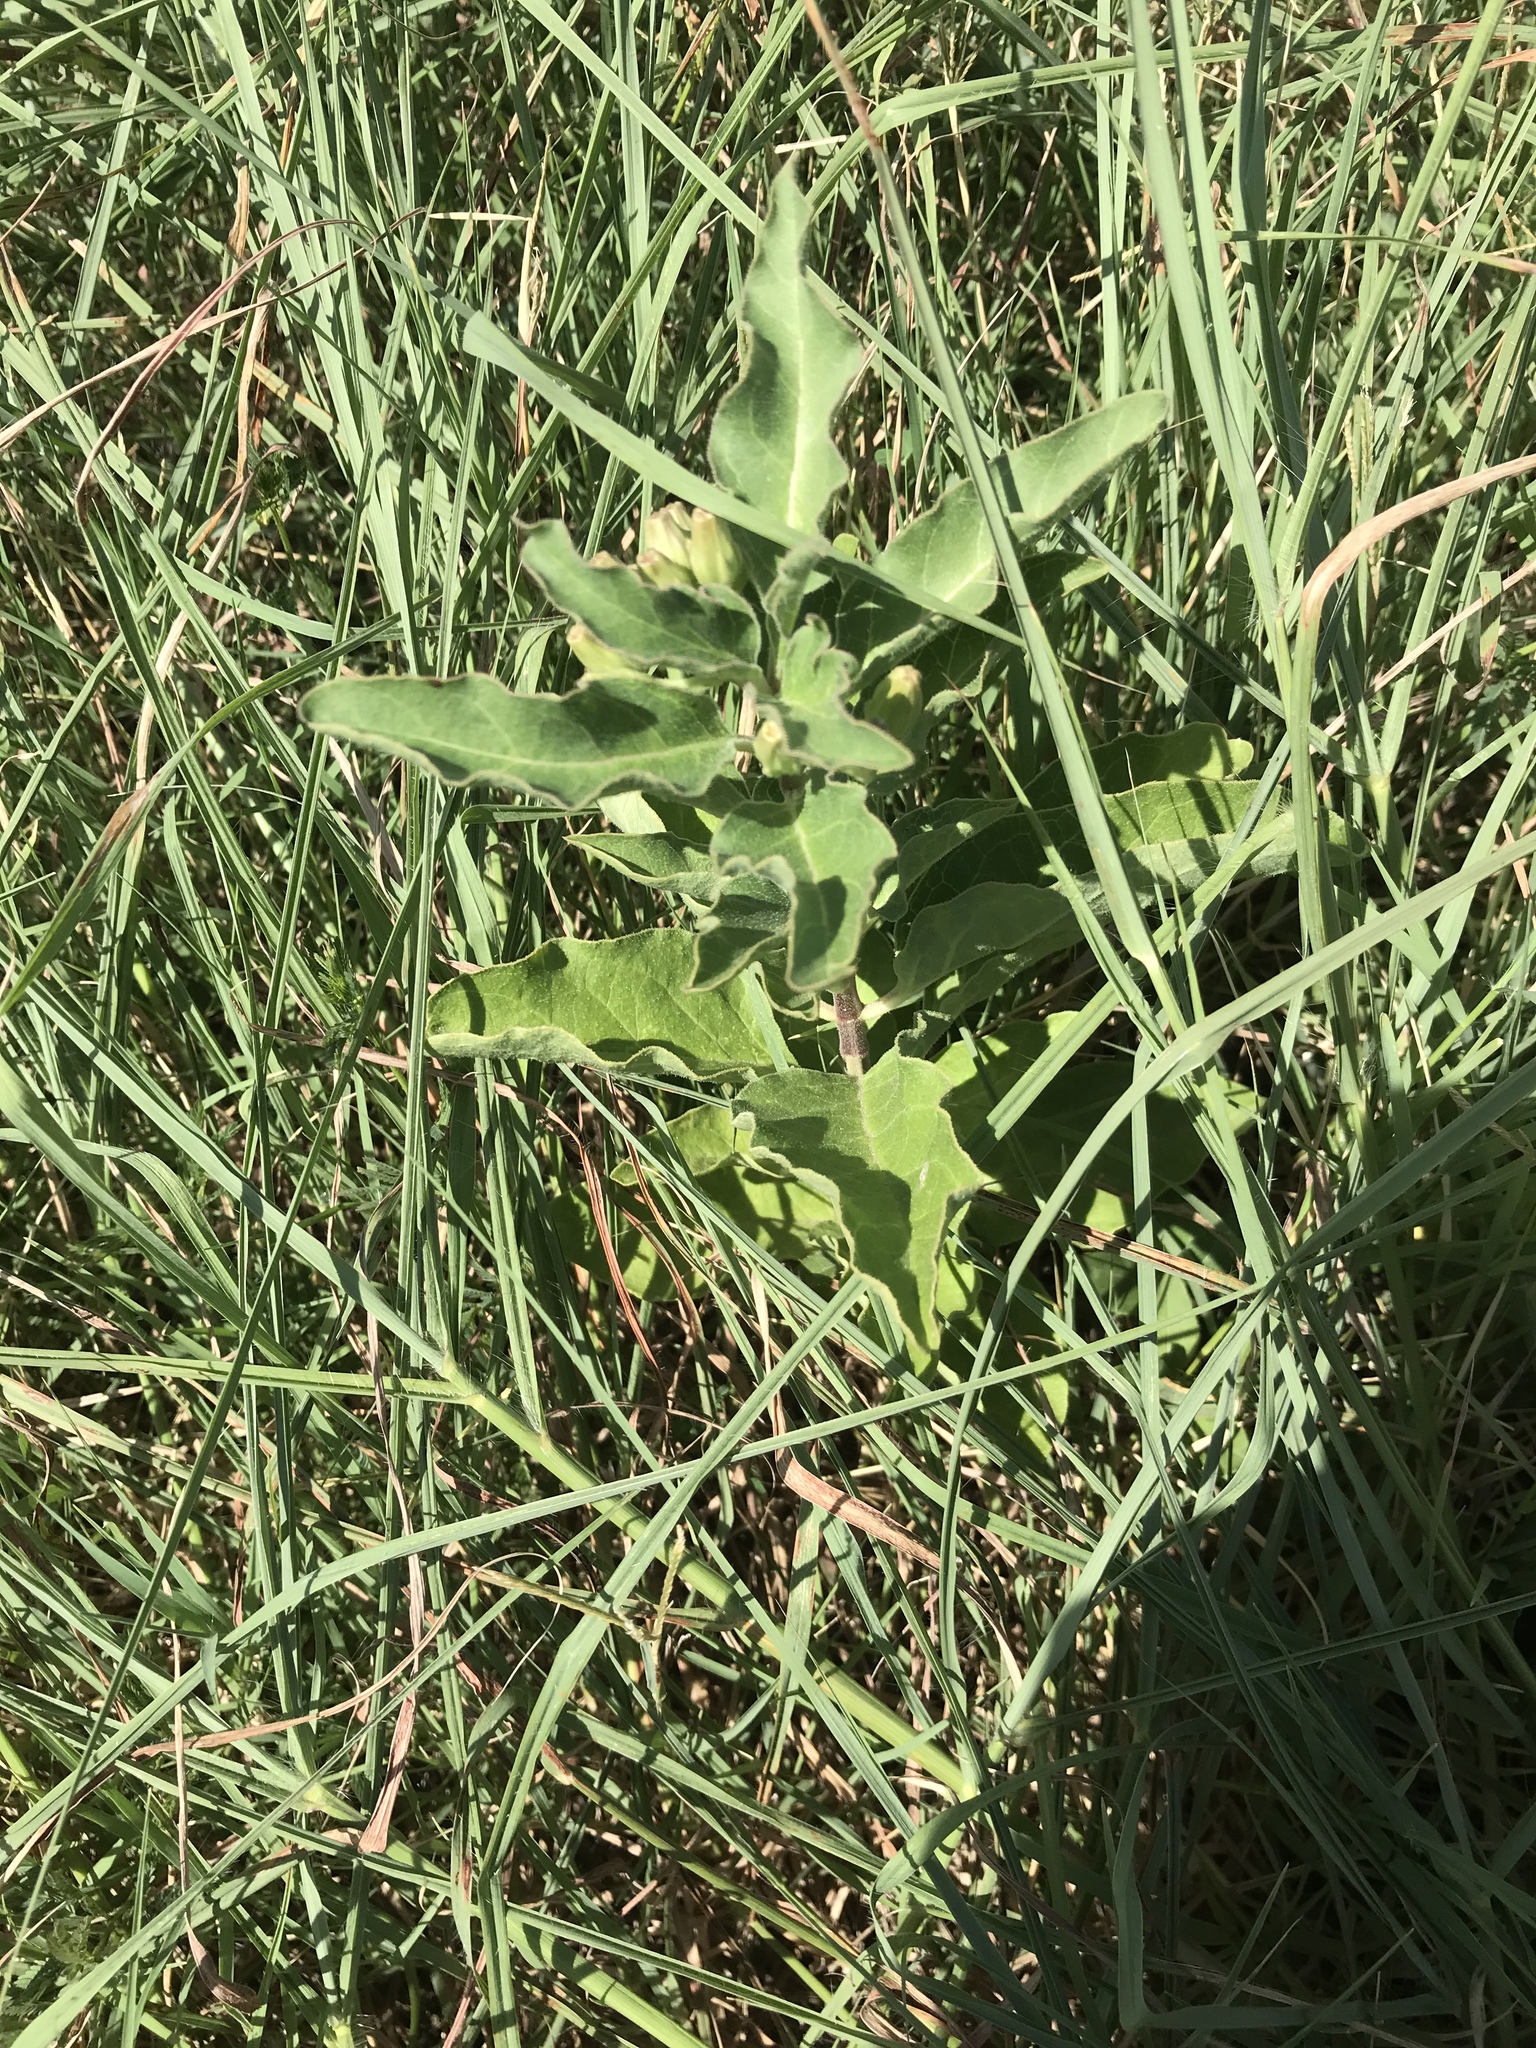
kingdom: Plantae
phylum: Tracheophyta
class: Magnoliopsida
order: Gentianales
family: Apocynaceae
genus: Asclepias
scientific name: Asclepias oenotheroides
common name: Zizotes milkweed
